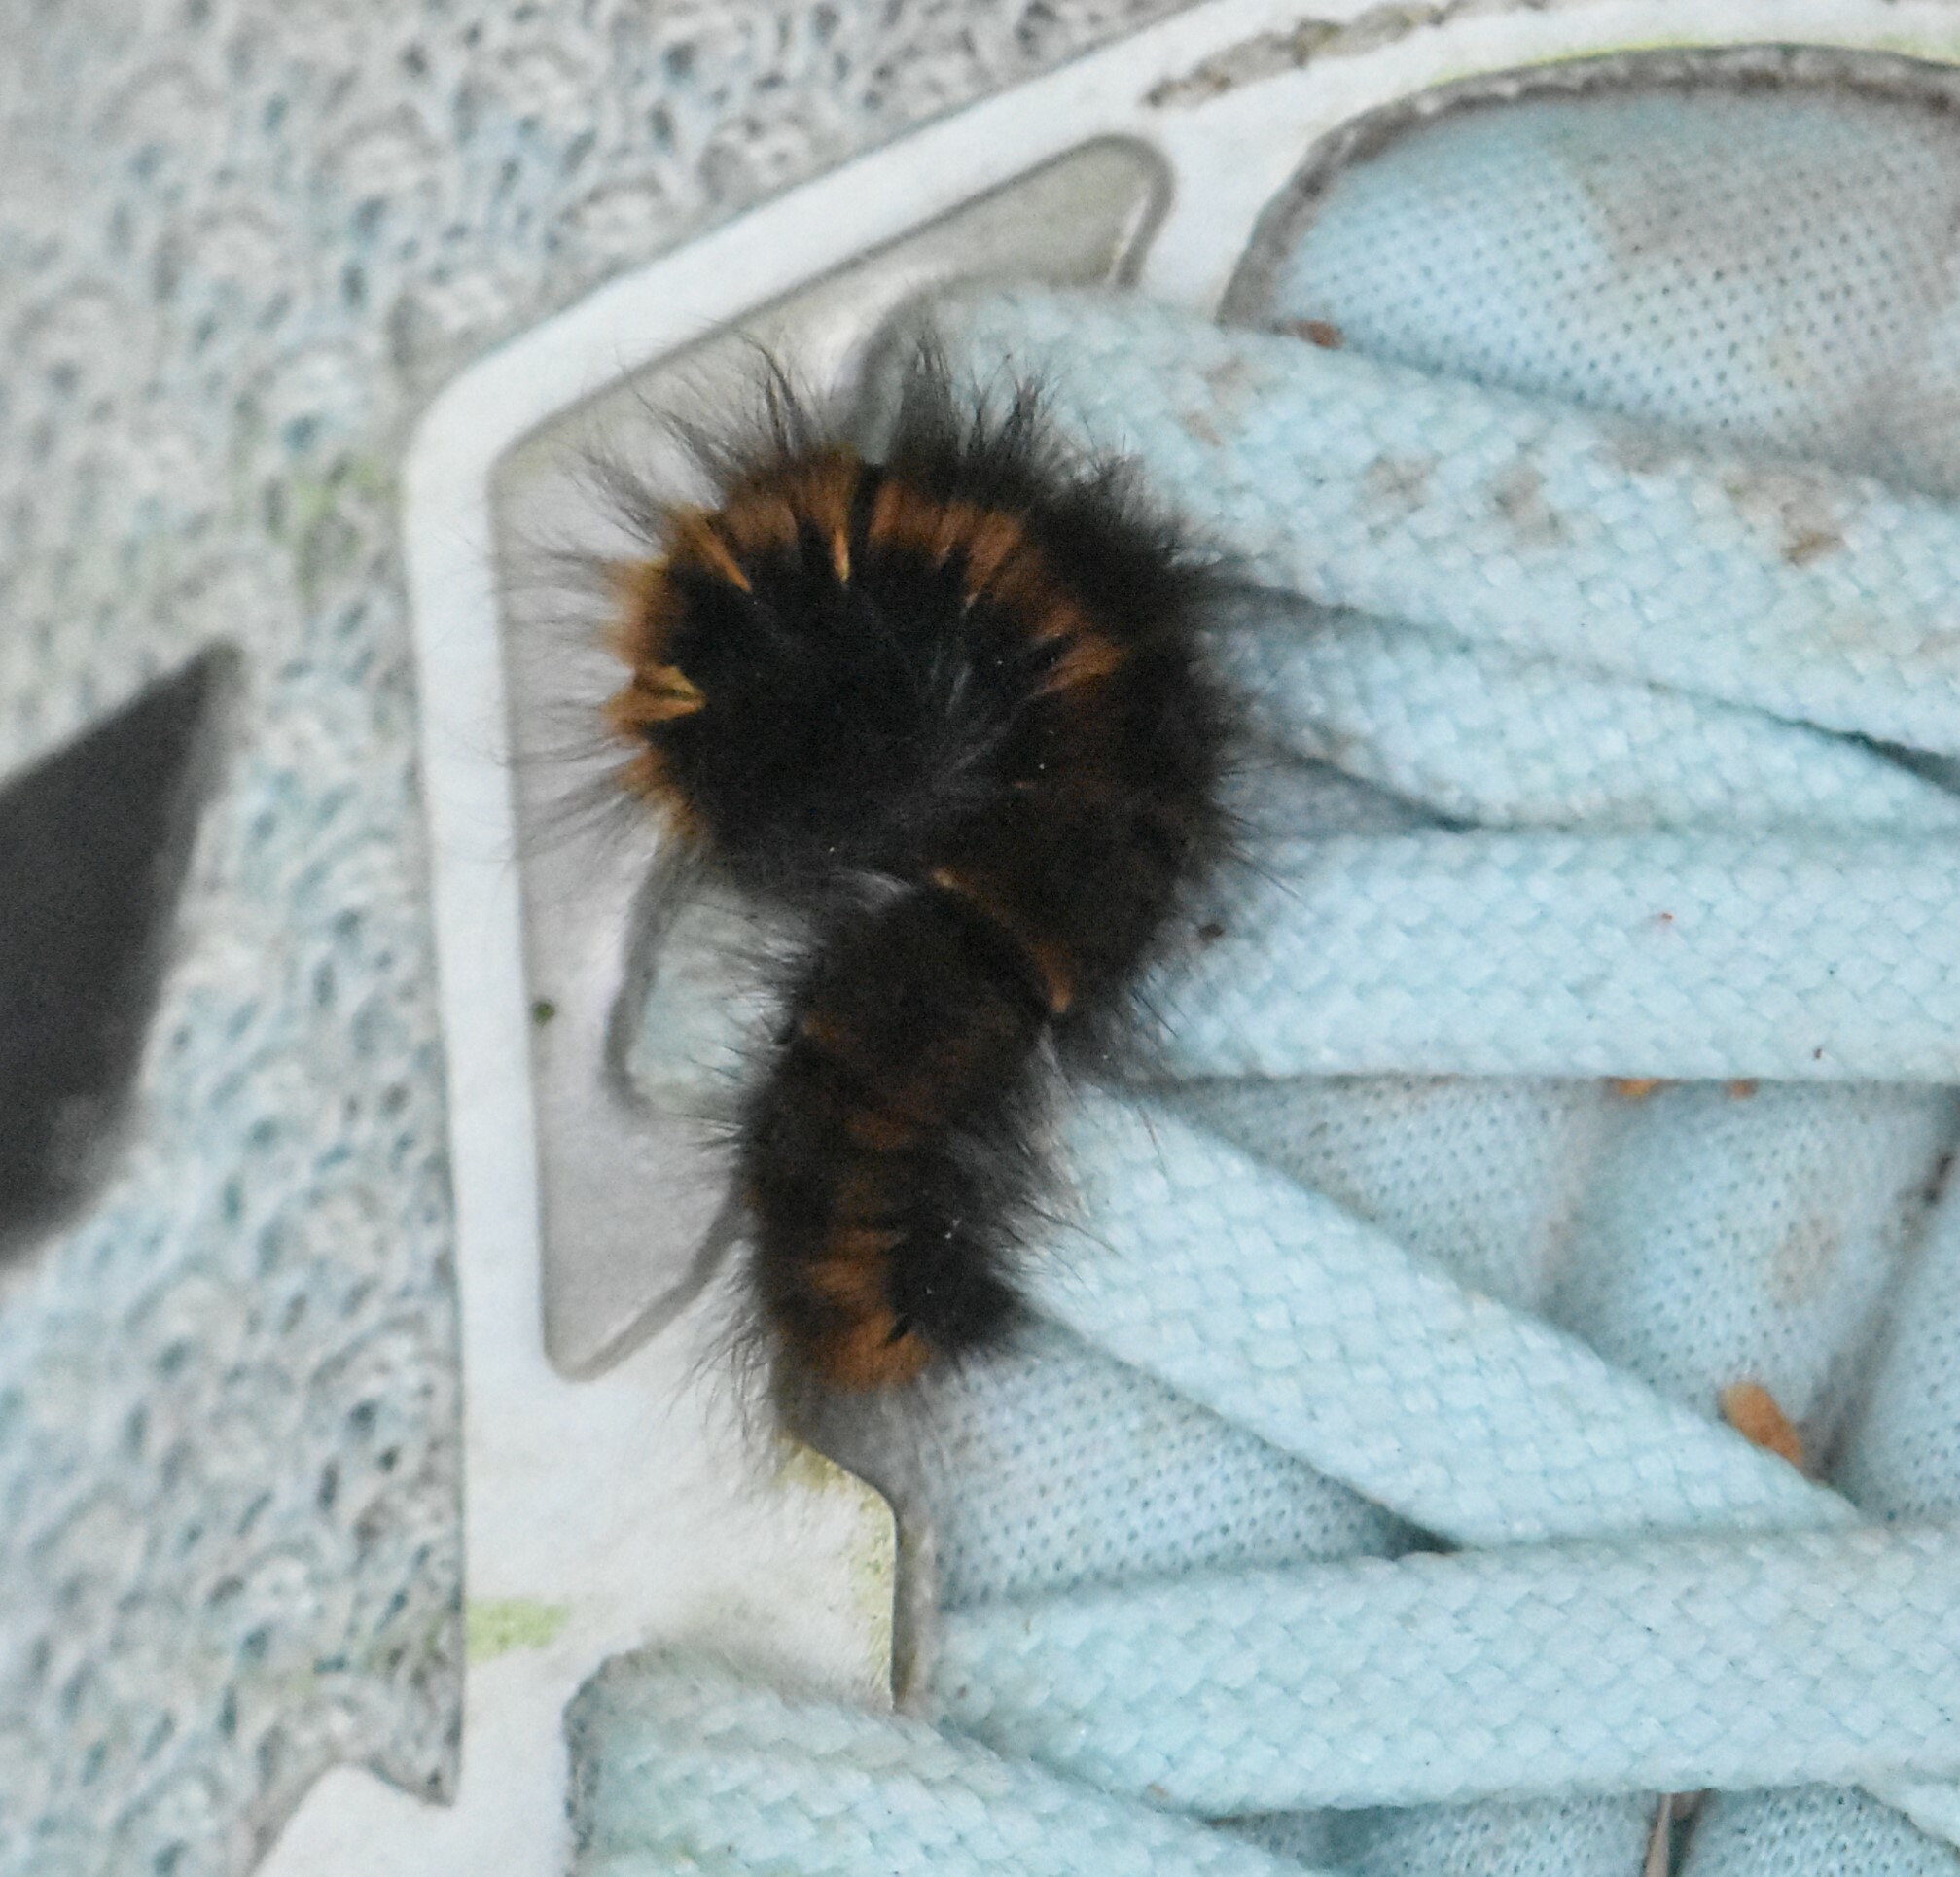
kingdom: Animalia
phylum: Arthropoda
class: Insecta
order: Lepidoptera
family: Lasiocampidae
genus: Macrothylacia
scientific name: Macrothylacia rubi
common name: Fox moth
